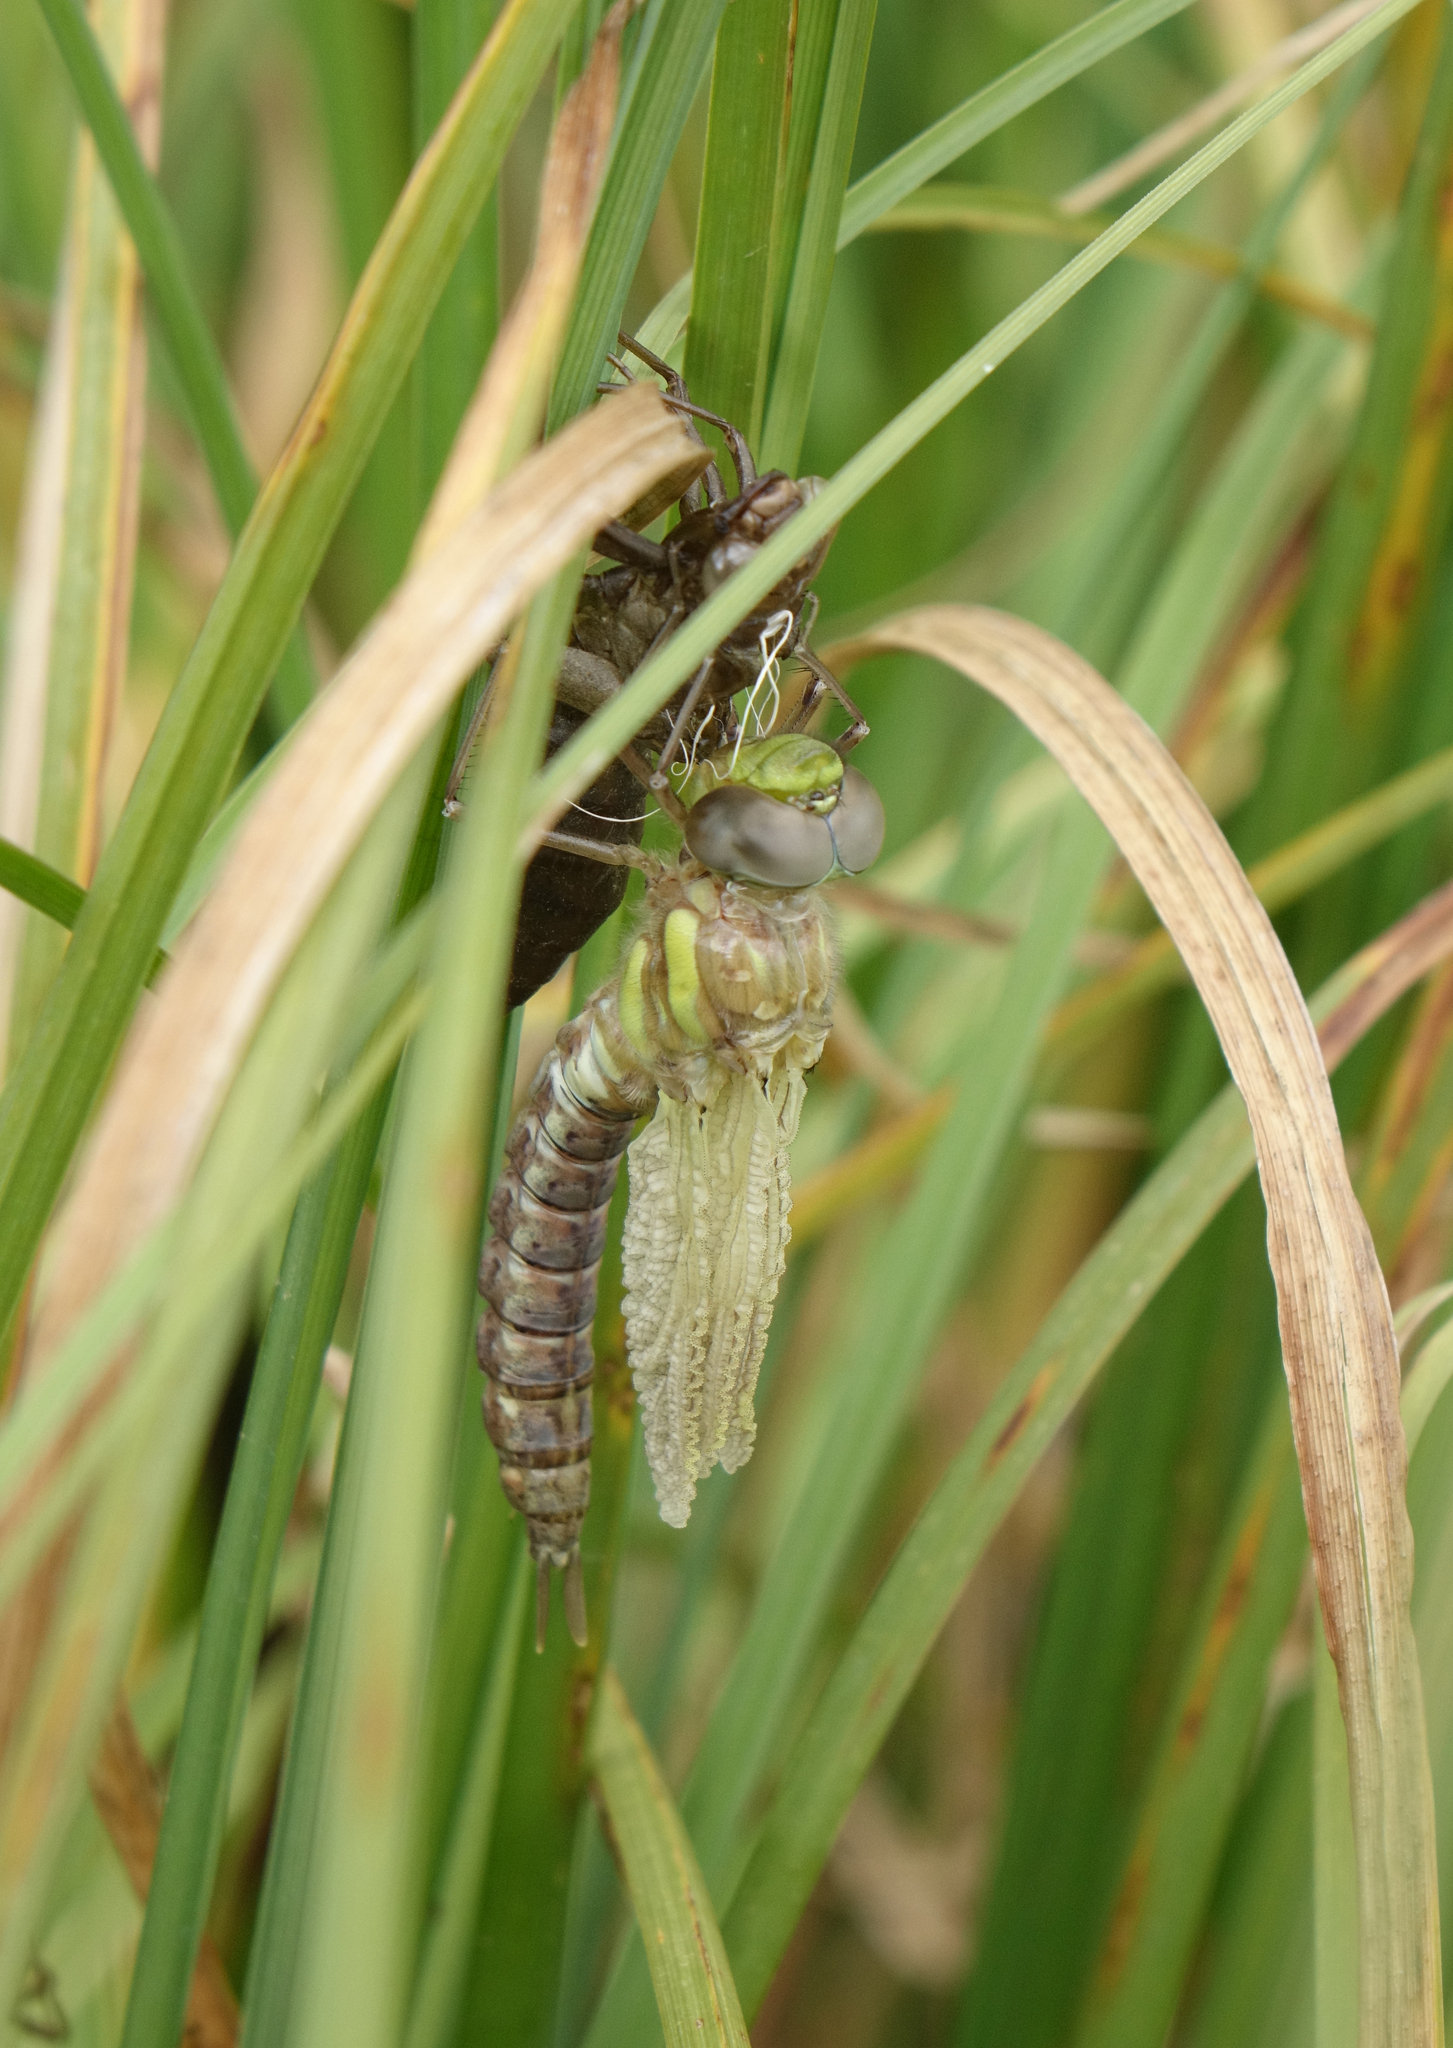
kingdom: Animalia
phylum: Arthropoda
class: Insecta
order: Odonata
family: Aeshnidae
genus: Aeshna
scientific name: Aeshna juncea
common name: Moorland hawker
